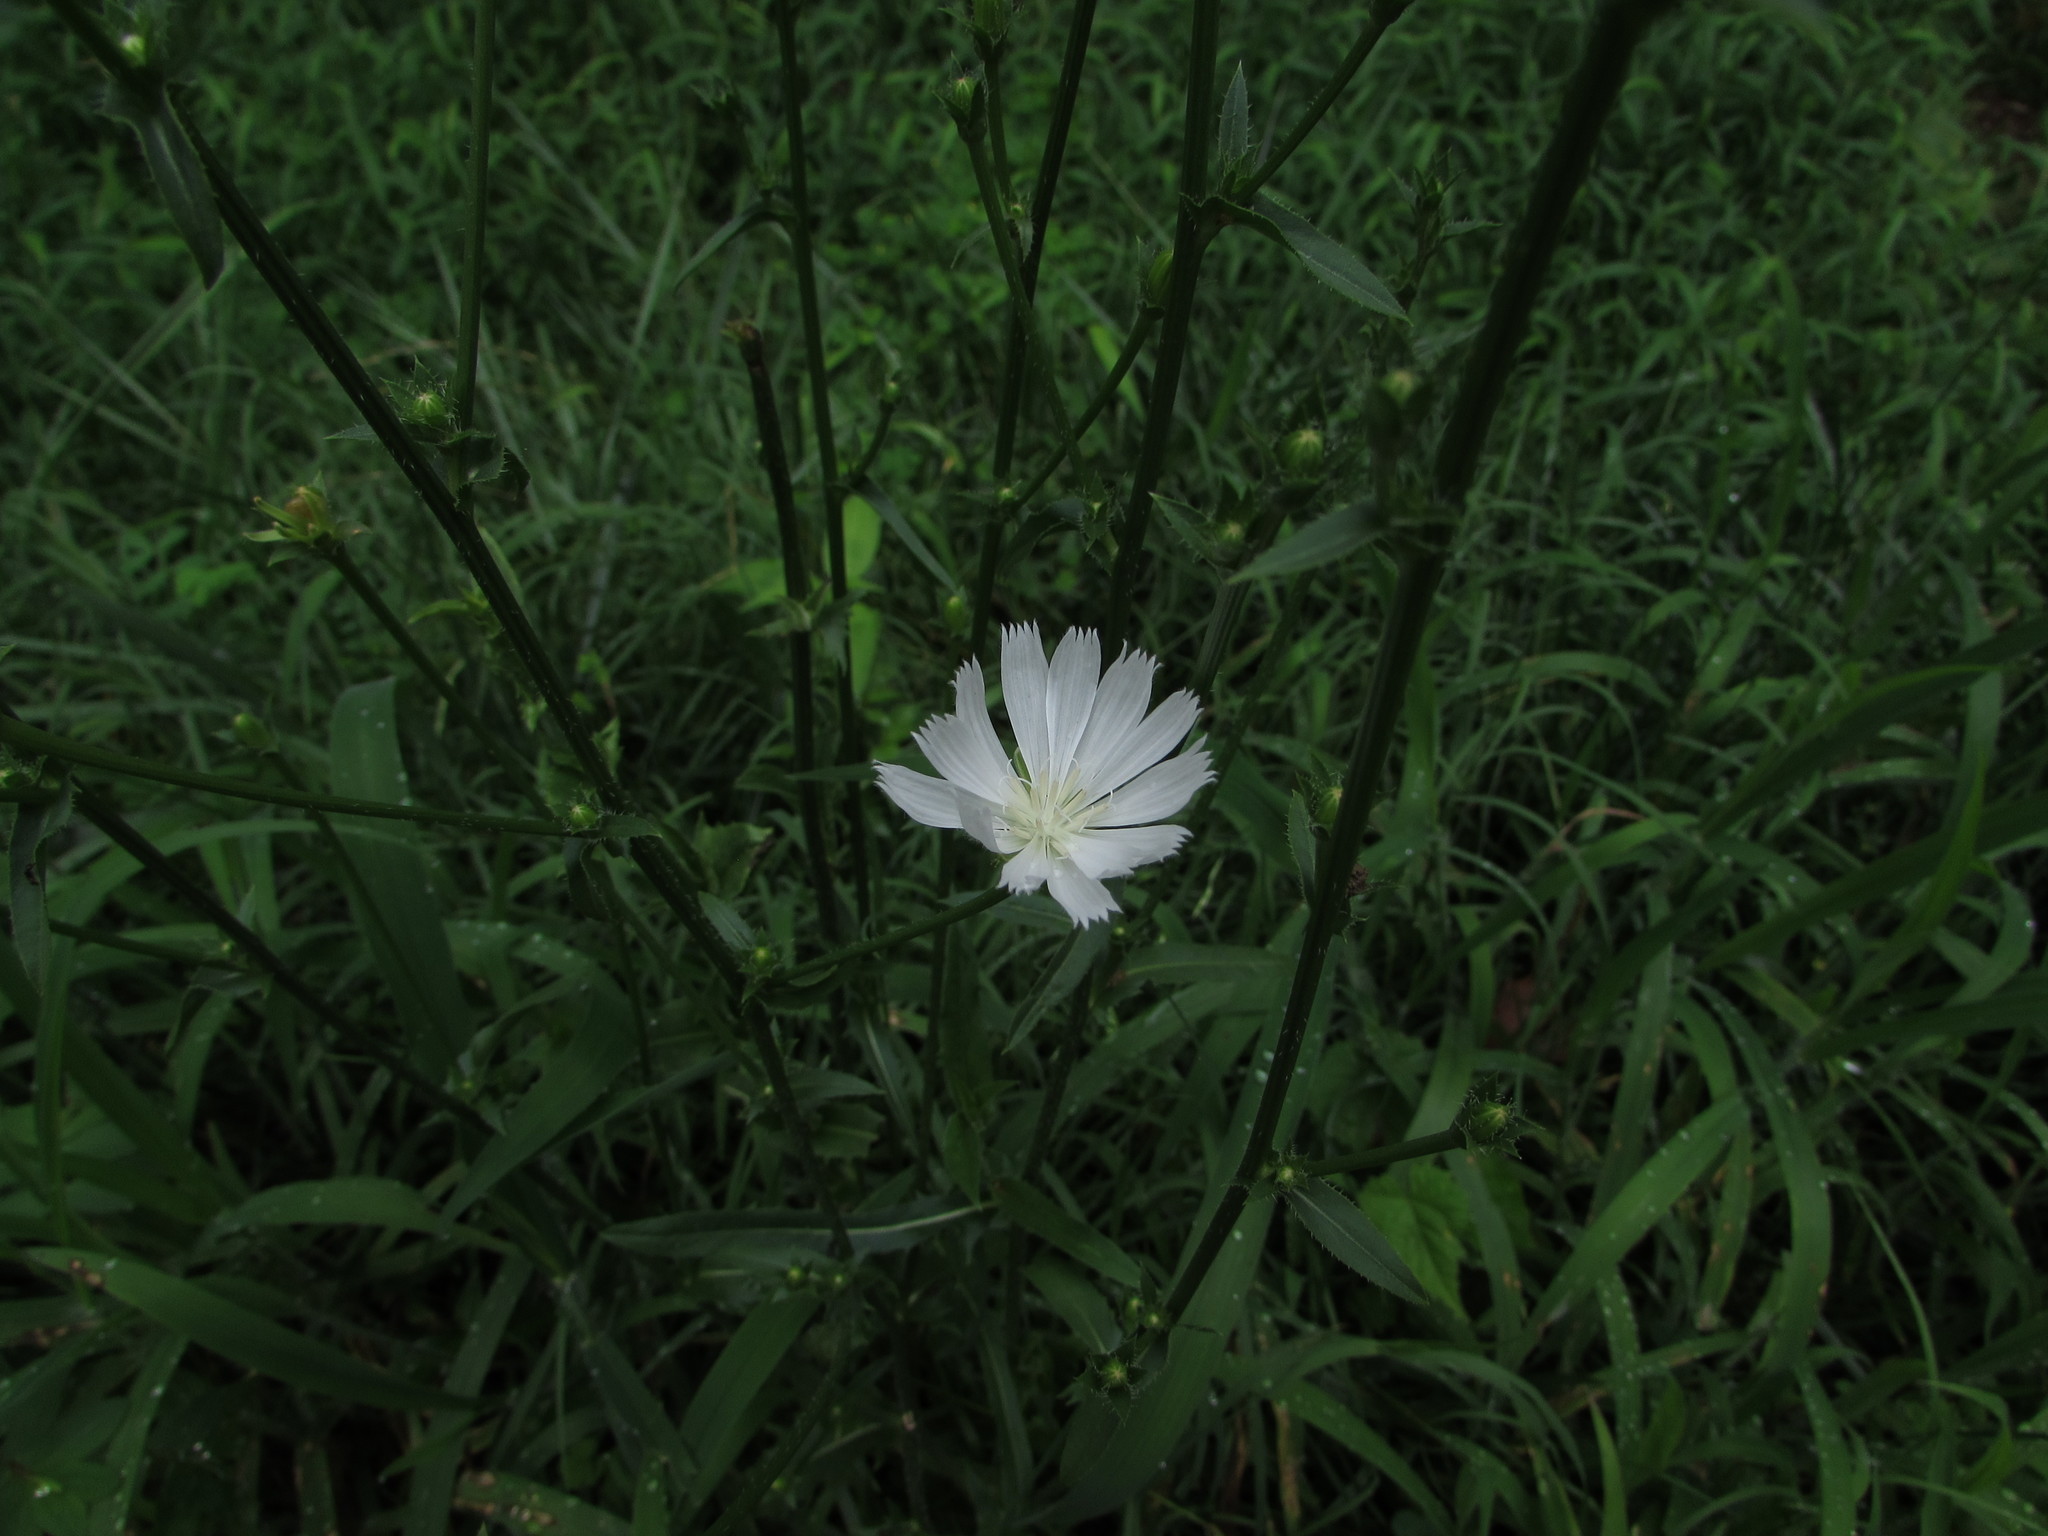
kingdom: Plantae
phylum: Tracheophyta
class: Magnoliopsida
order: Asterales
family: Asteraceae
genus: Cichorium
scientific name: Cichorium intybus
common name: Chicory
